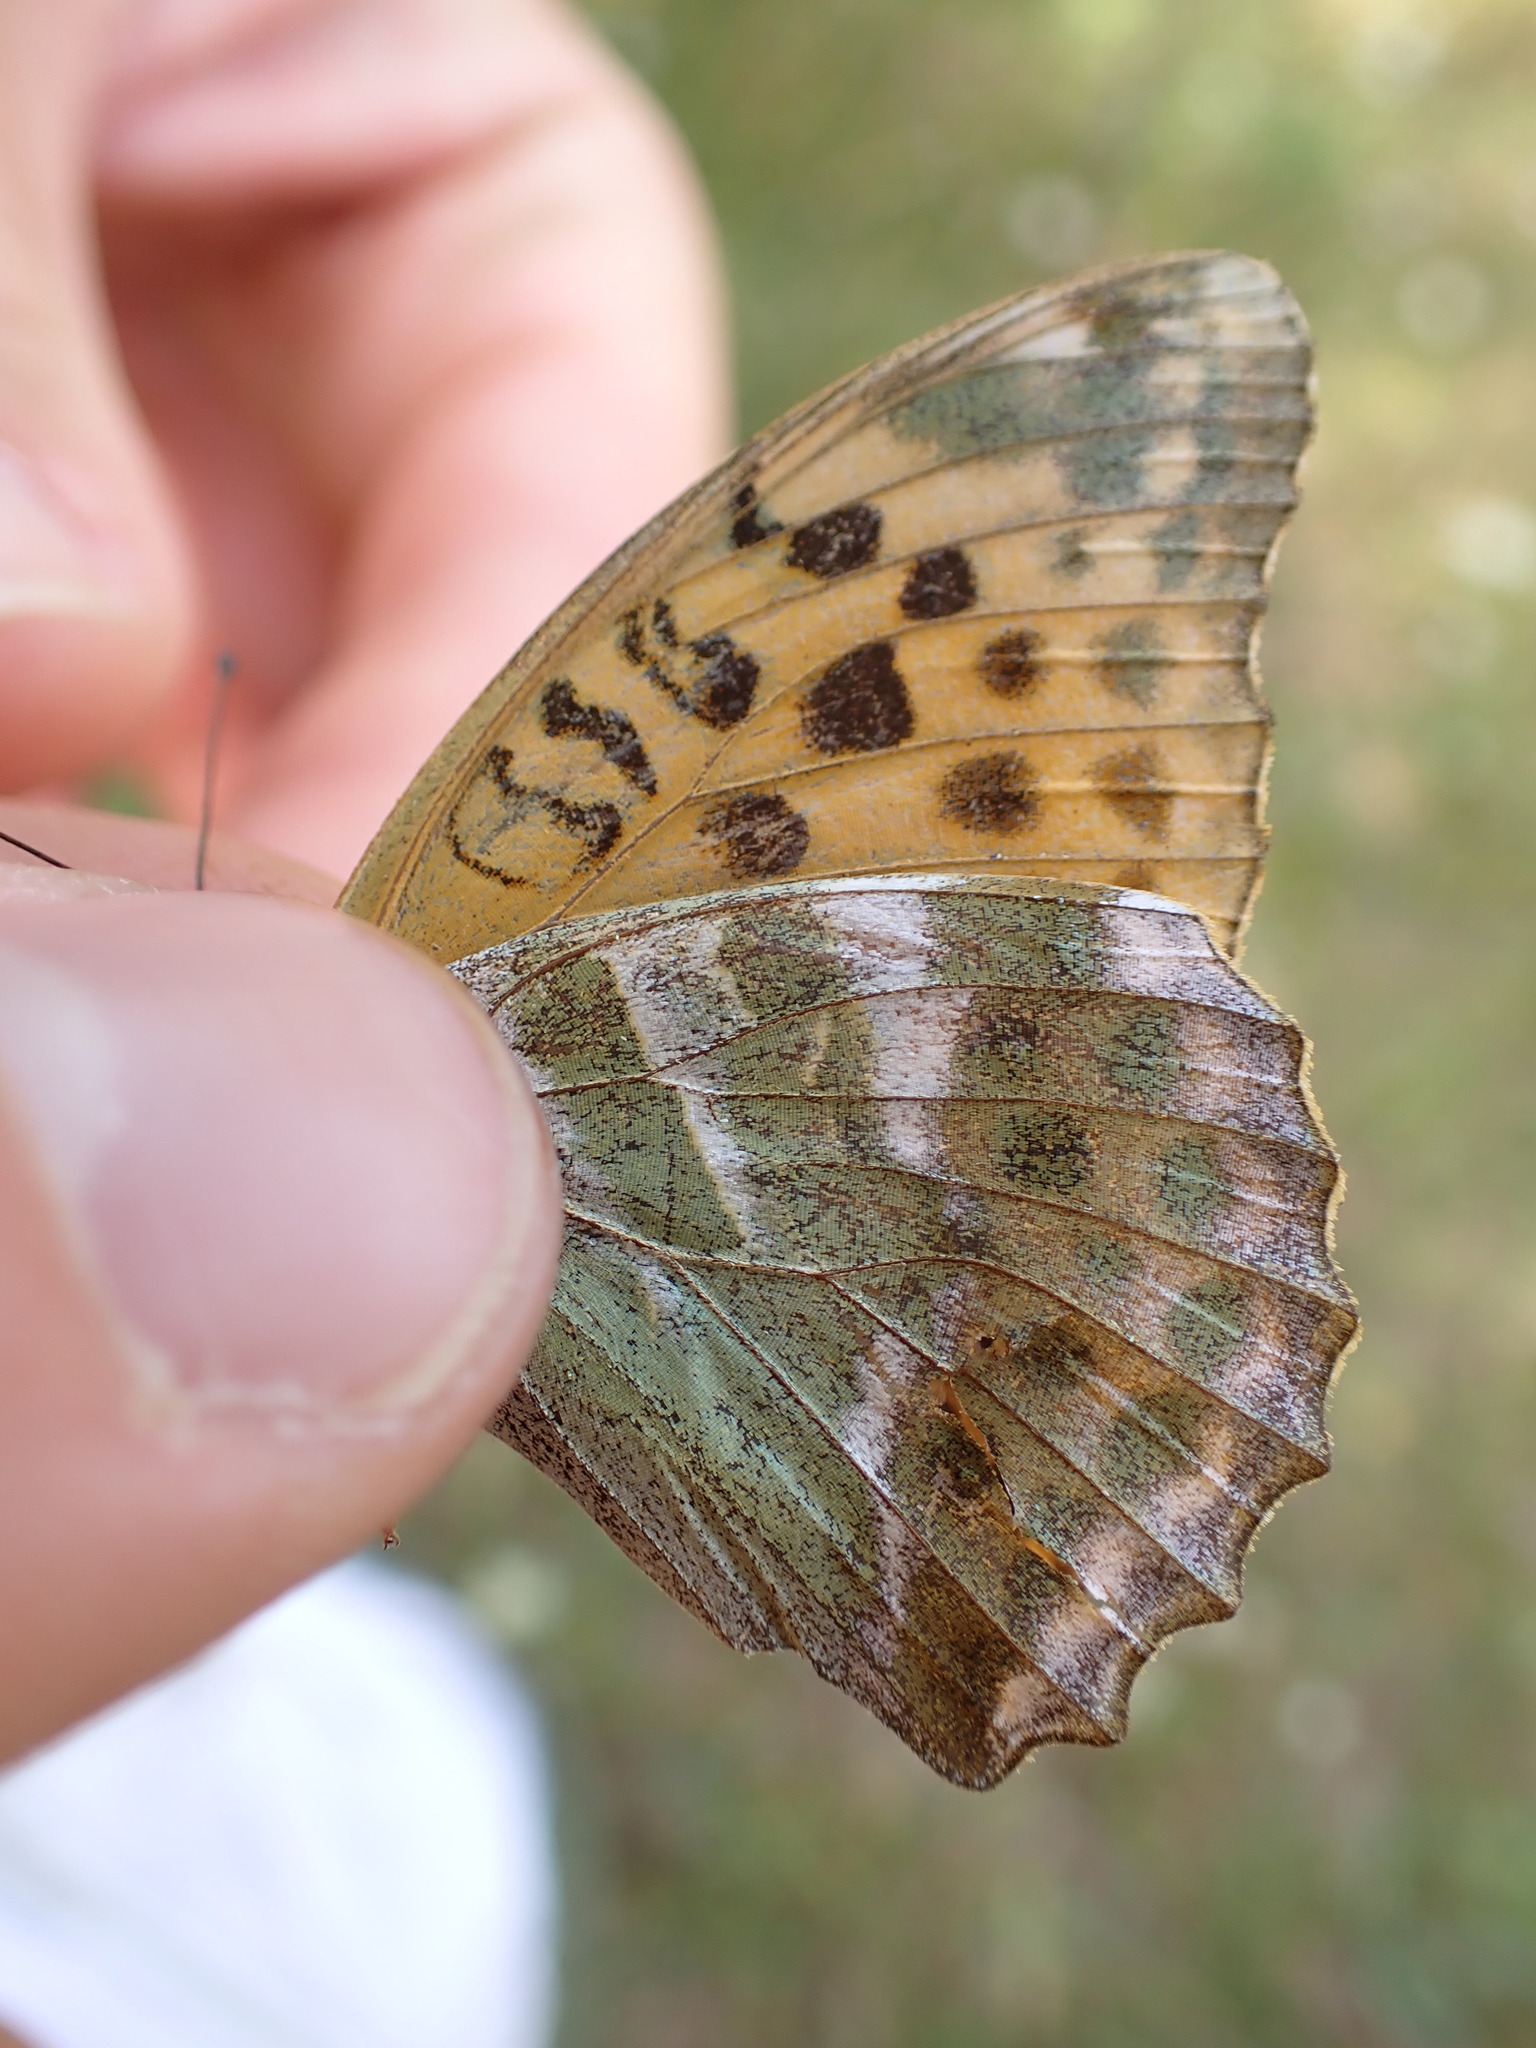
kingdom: Animalia
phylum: Arthropoda
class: Insecta
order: Lepidoptera
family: Nymphalidae
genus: Argynnis
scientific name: Argynnis paphia
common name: Silver-washed fritillary
